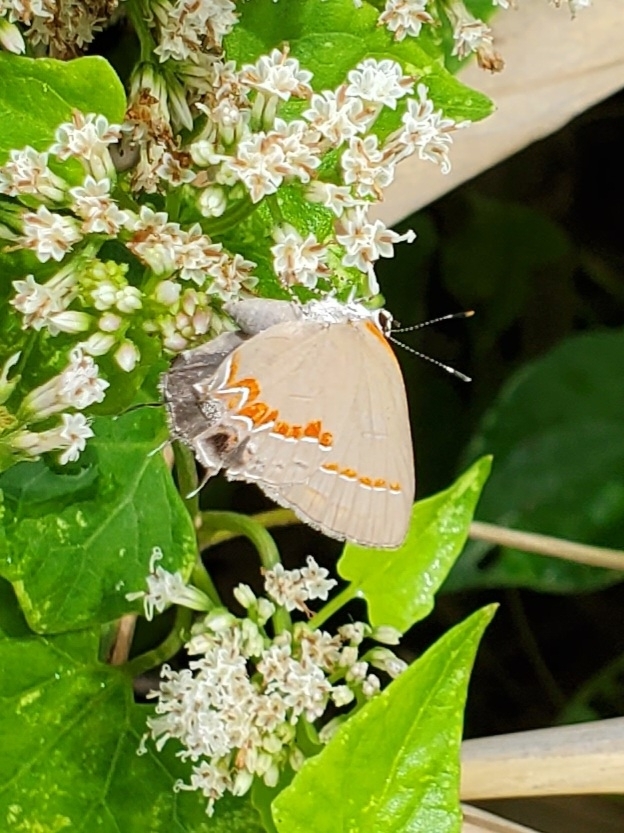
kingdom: Animalia
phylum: Arthropoda
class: Insecta
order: Lepidoptera
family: Lycaenidae
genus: Calycopis
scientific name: Calycopis cecrops
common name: Red-banded hairstreak
